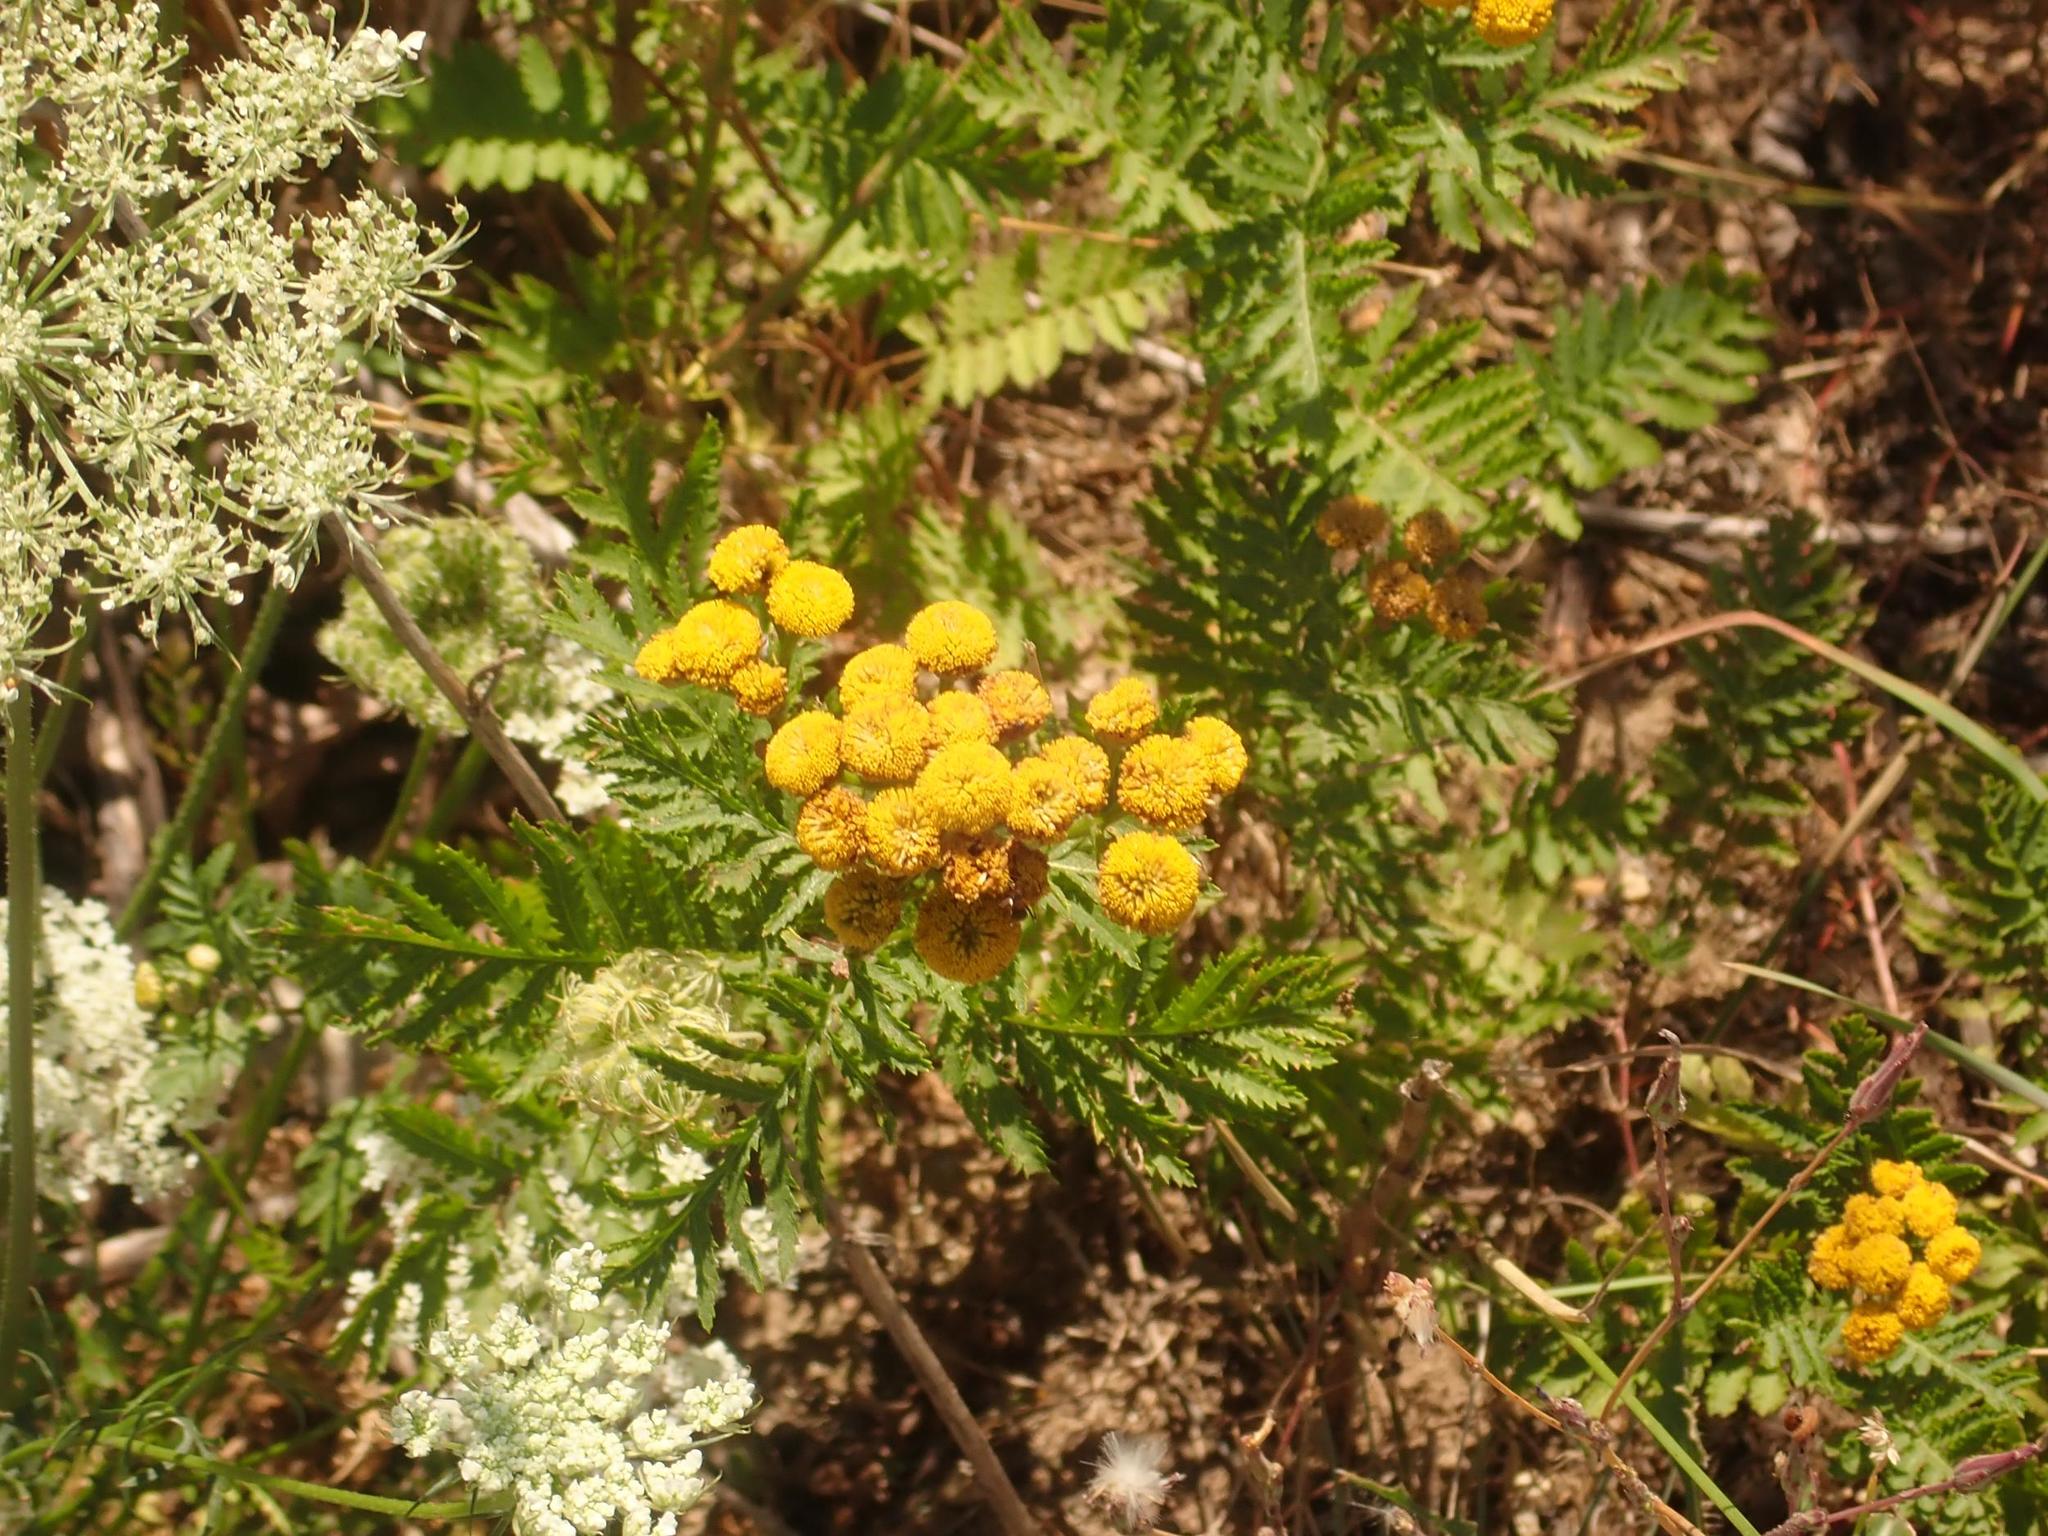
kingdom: Plantae
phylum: Tracheophyta
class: Magnoliopsida
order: Asterales
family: Asteraceae
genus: Tanacetum
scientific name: Tanacetum vulgare
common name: Common tansy
